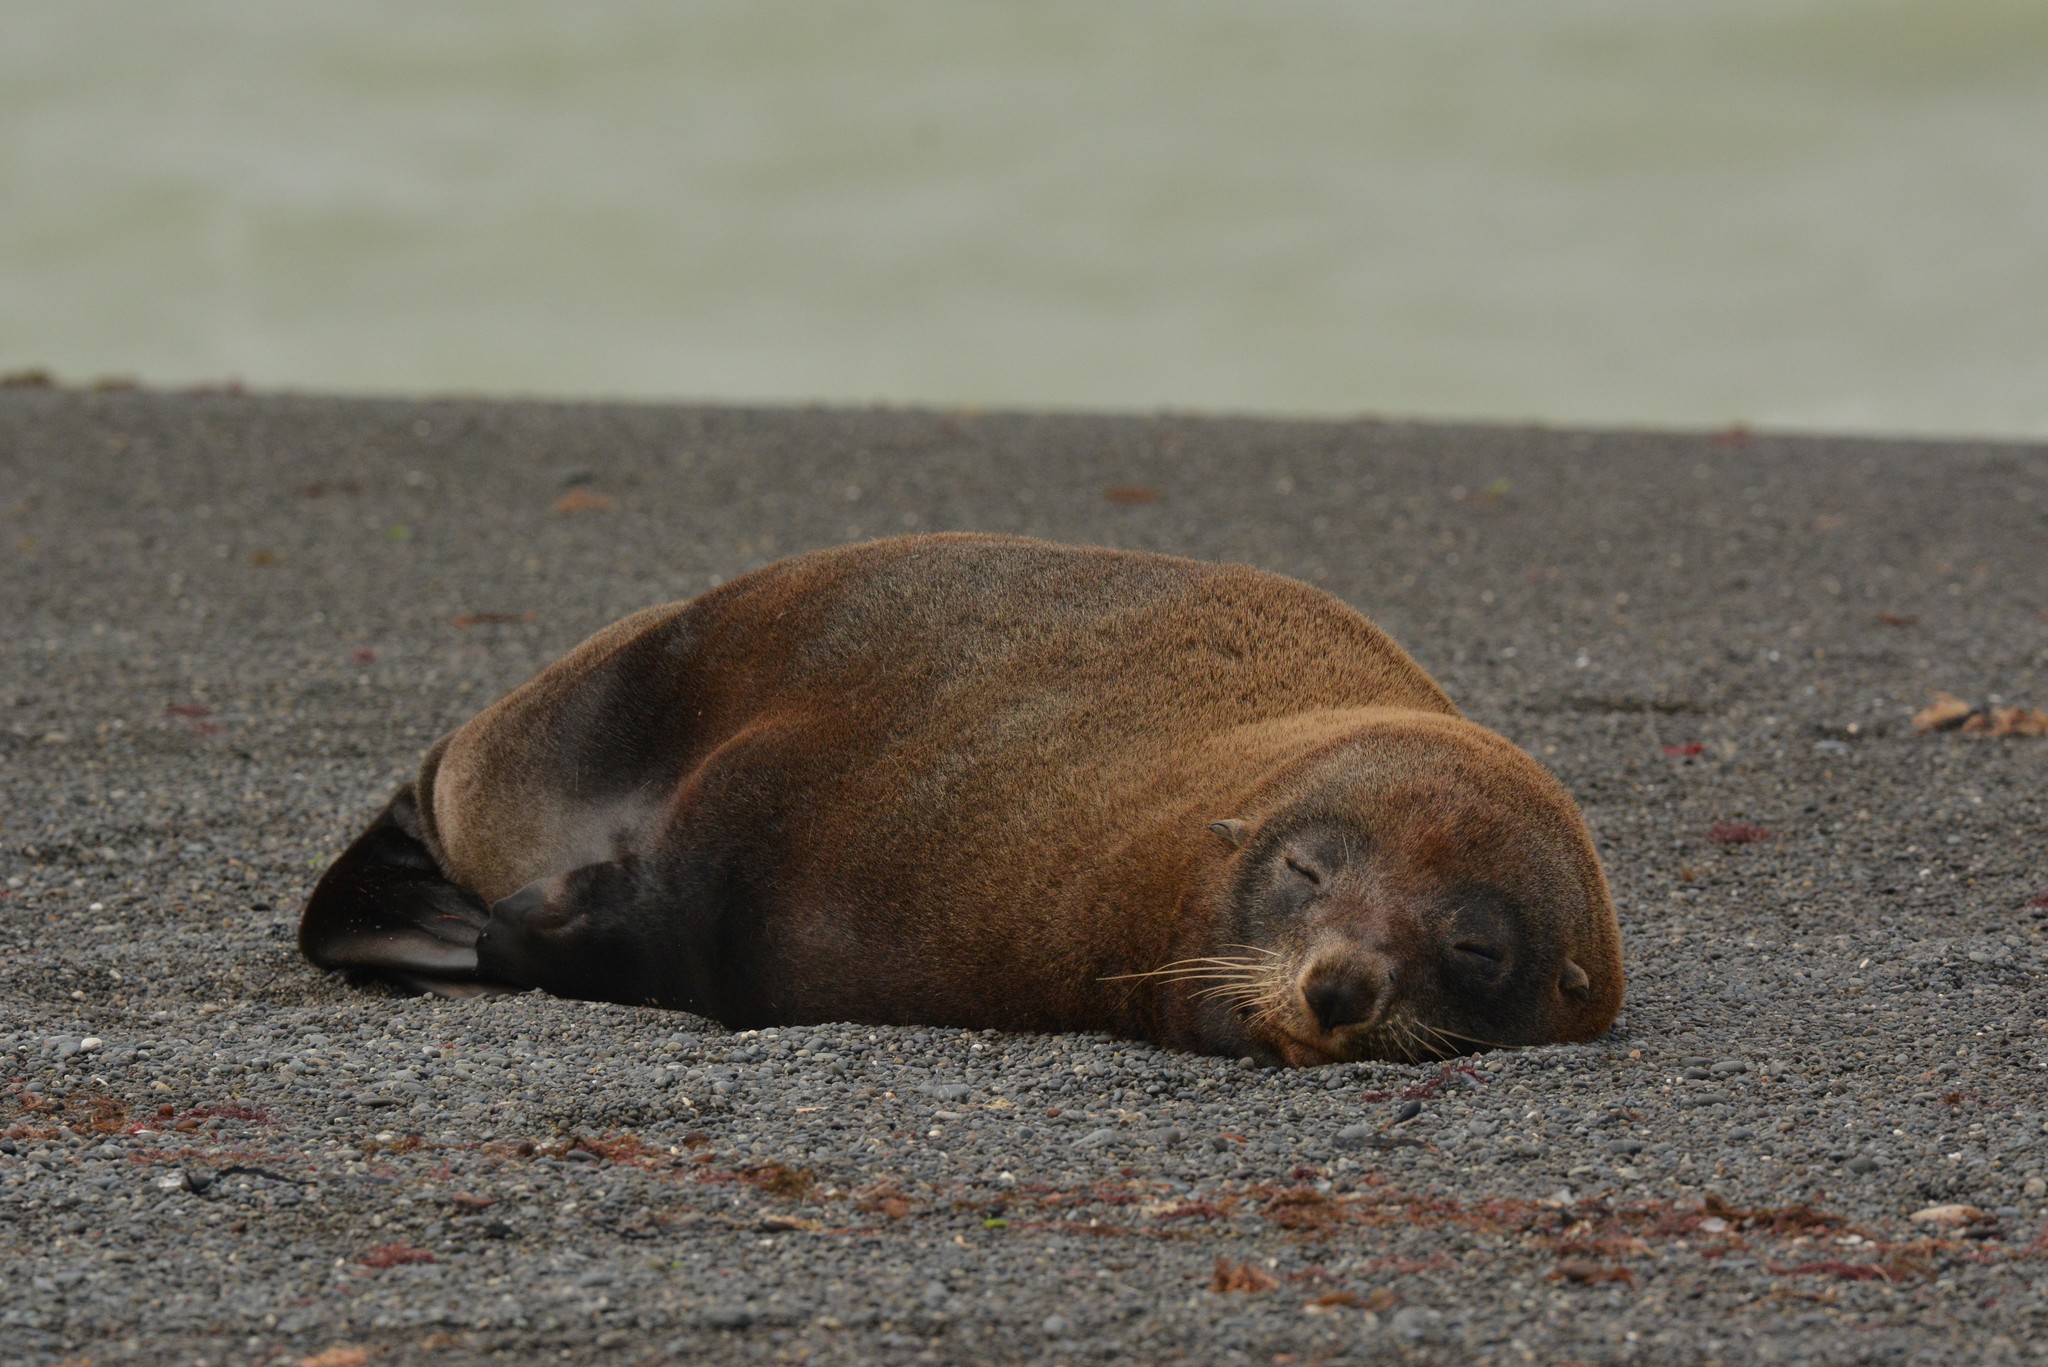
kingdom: Animalia
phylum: Chordata
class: Mammalia
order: Carnivora
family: Otariidae
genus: Arctocephalus
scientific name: Arctocephalus forsteri
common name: New zealand fur seal
